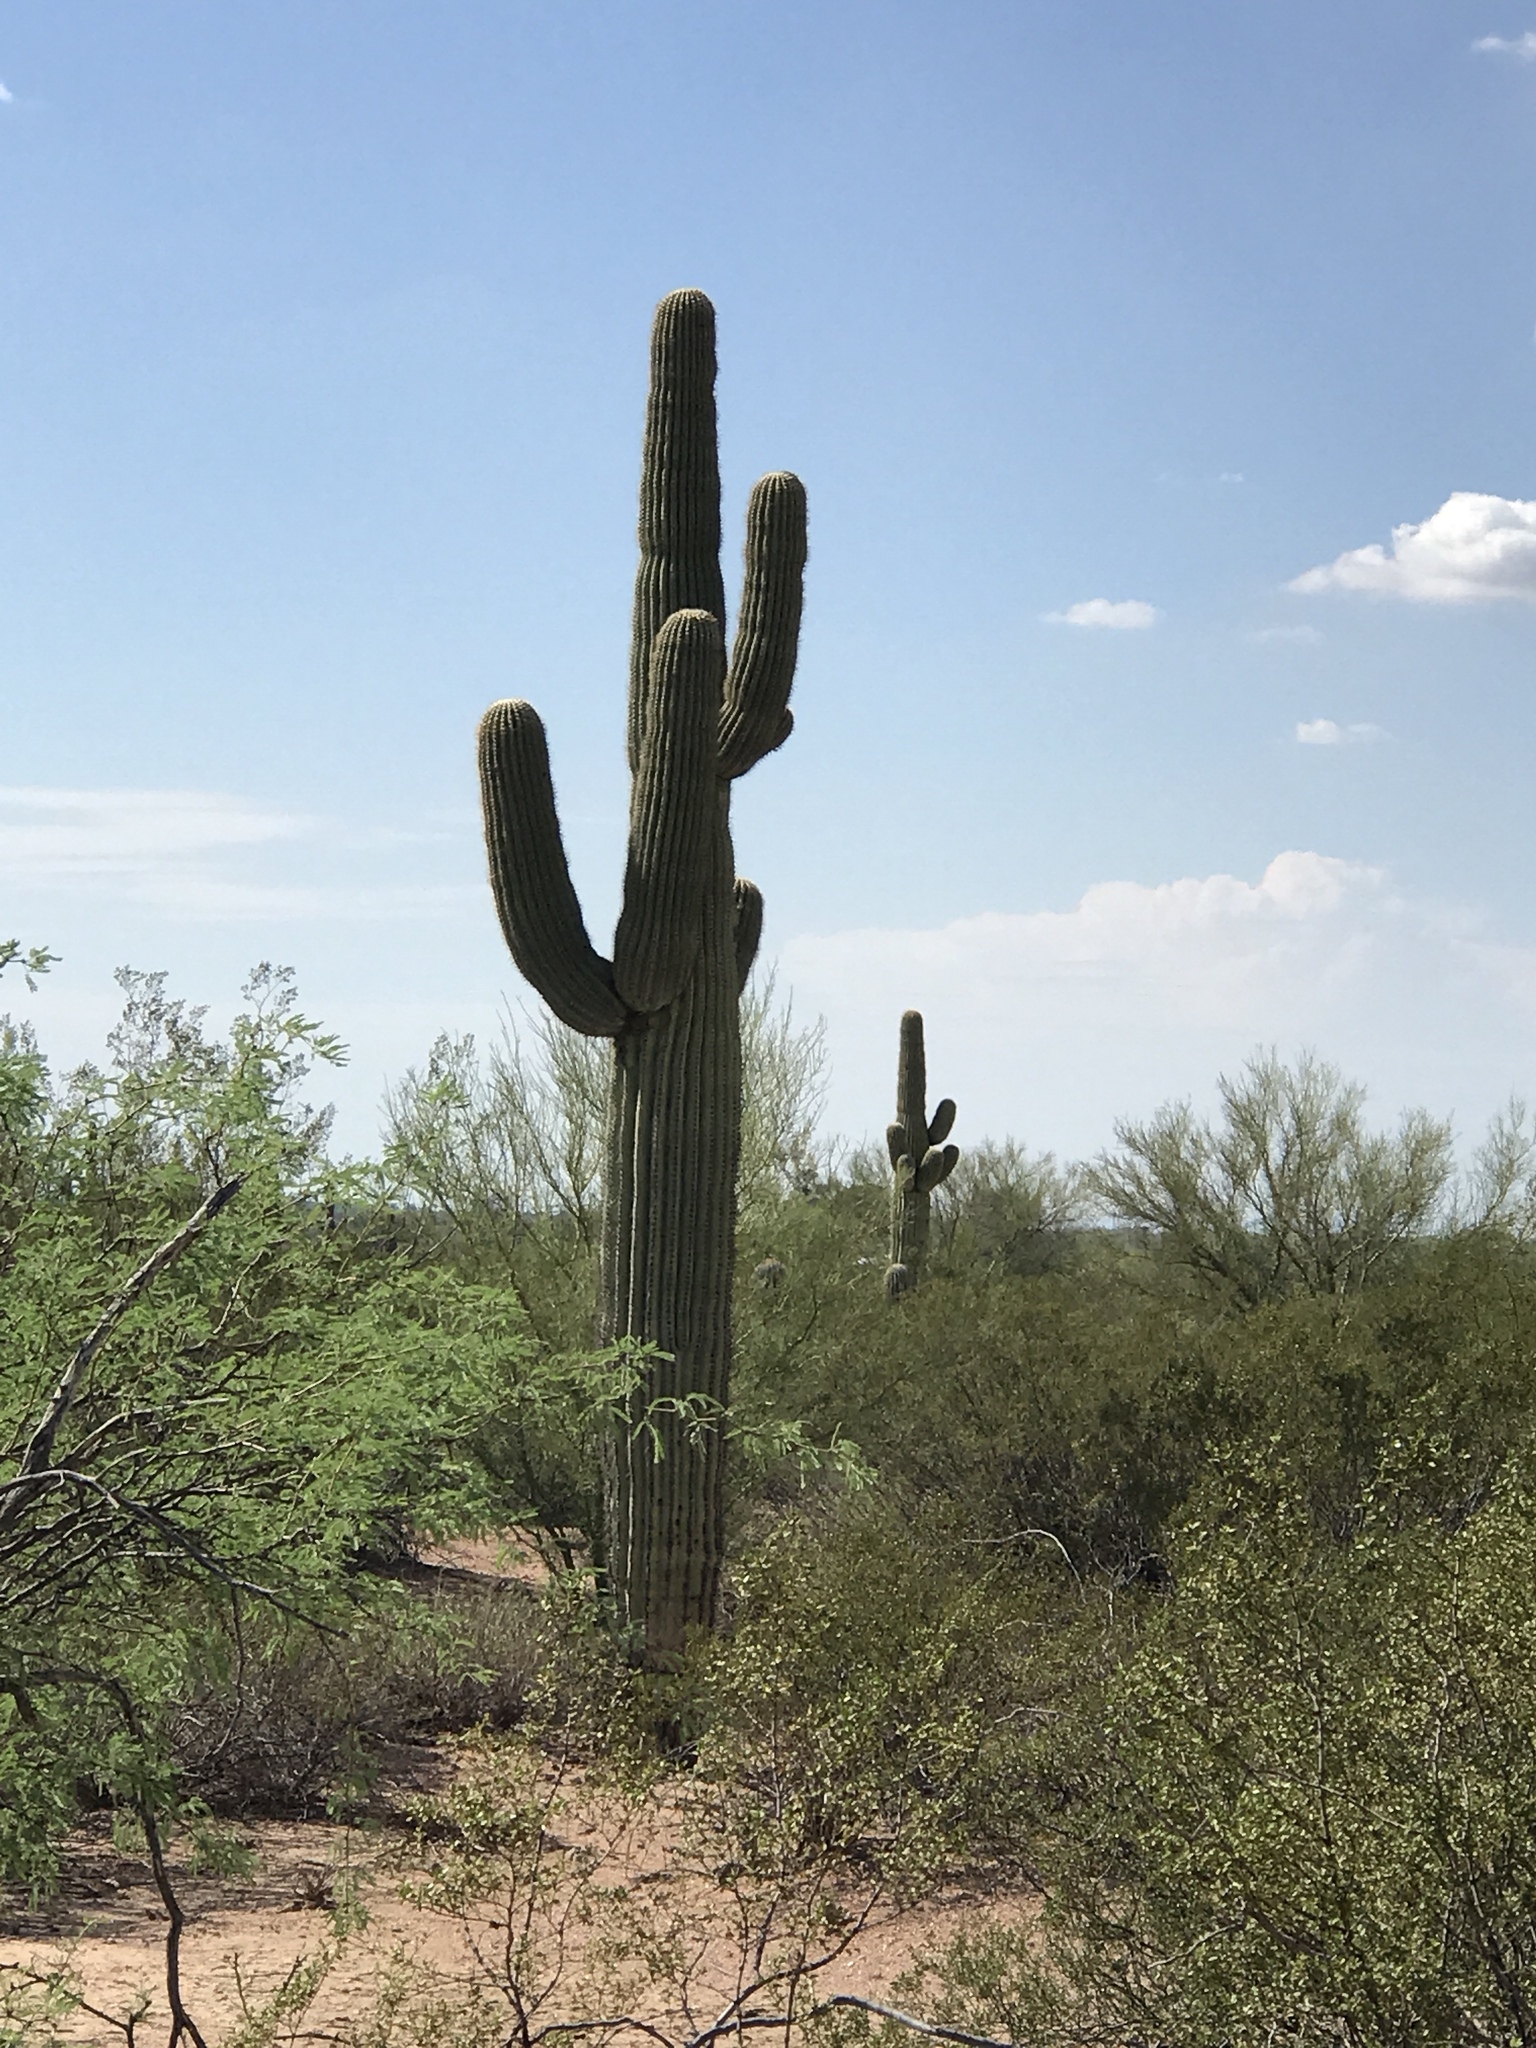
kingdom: Plantae
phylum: Tracheophyta
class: Magnoliopsida
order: Caryophyllales
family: Cactaceae
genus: Carnegiea
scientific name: Carnegiea gigantea
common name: Saguaro
